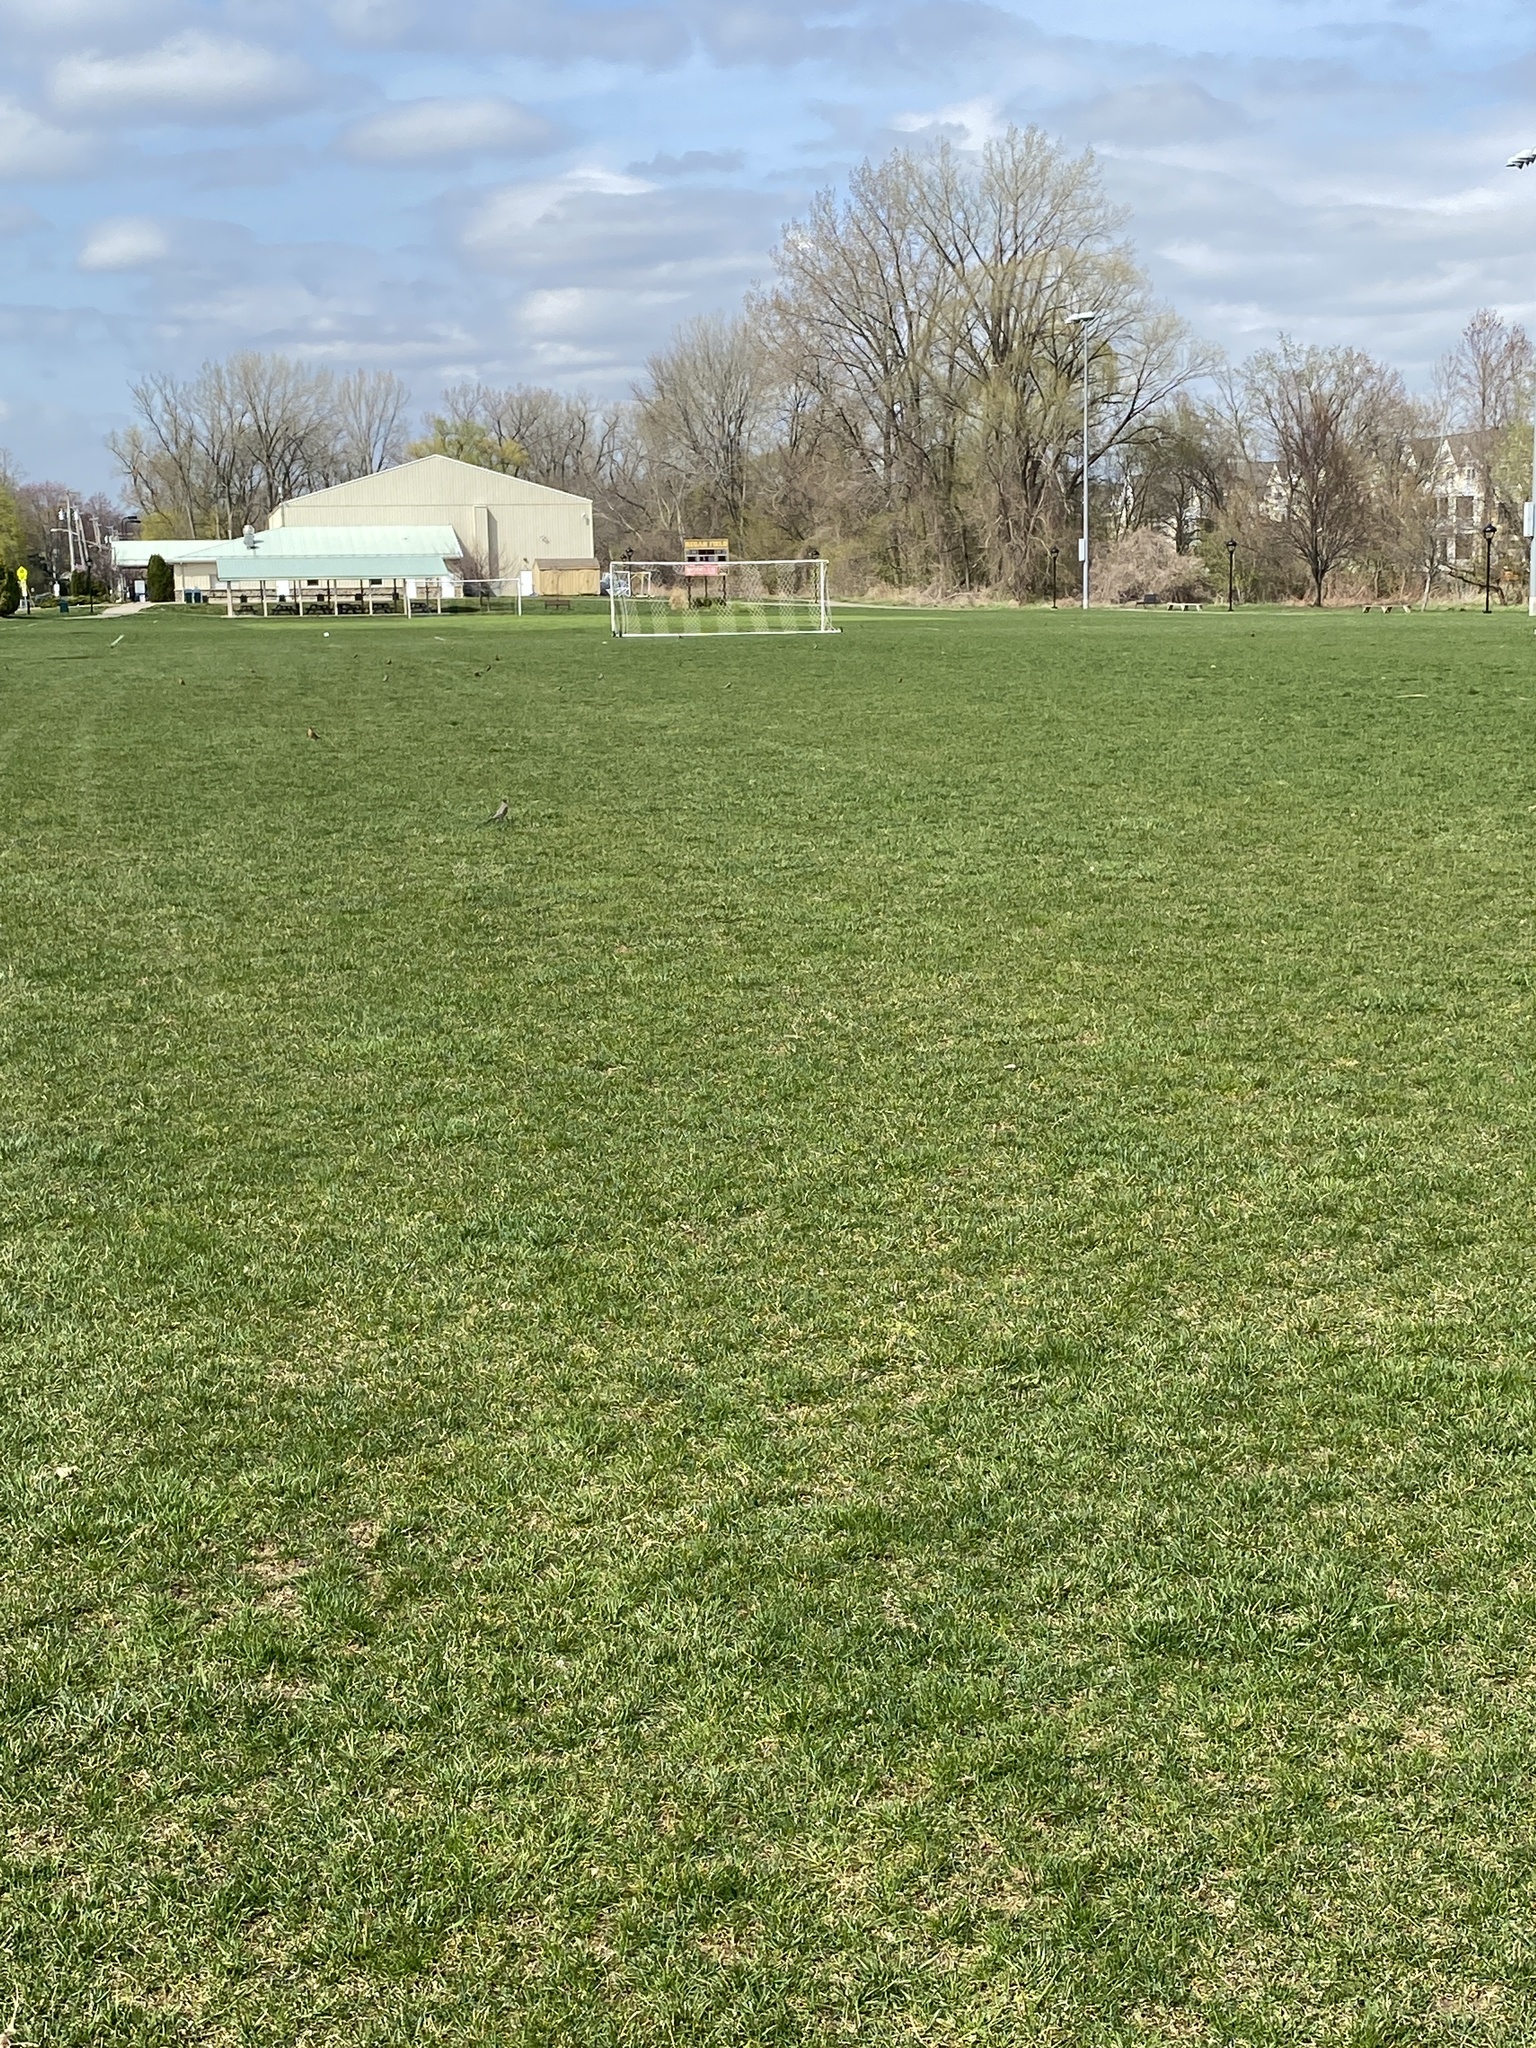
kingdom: Animalia
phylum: Chordata
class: Aves
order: Passeriformes
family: Turdidae
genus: Turdus
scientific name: Turdus migratorius
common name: American robin
